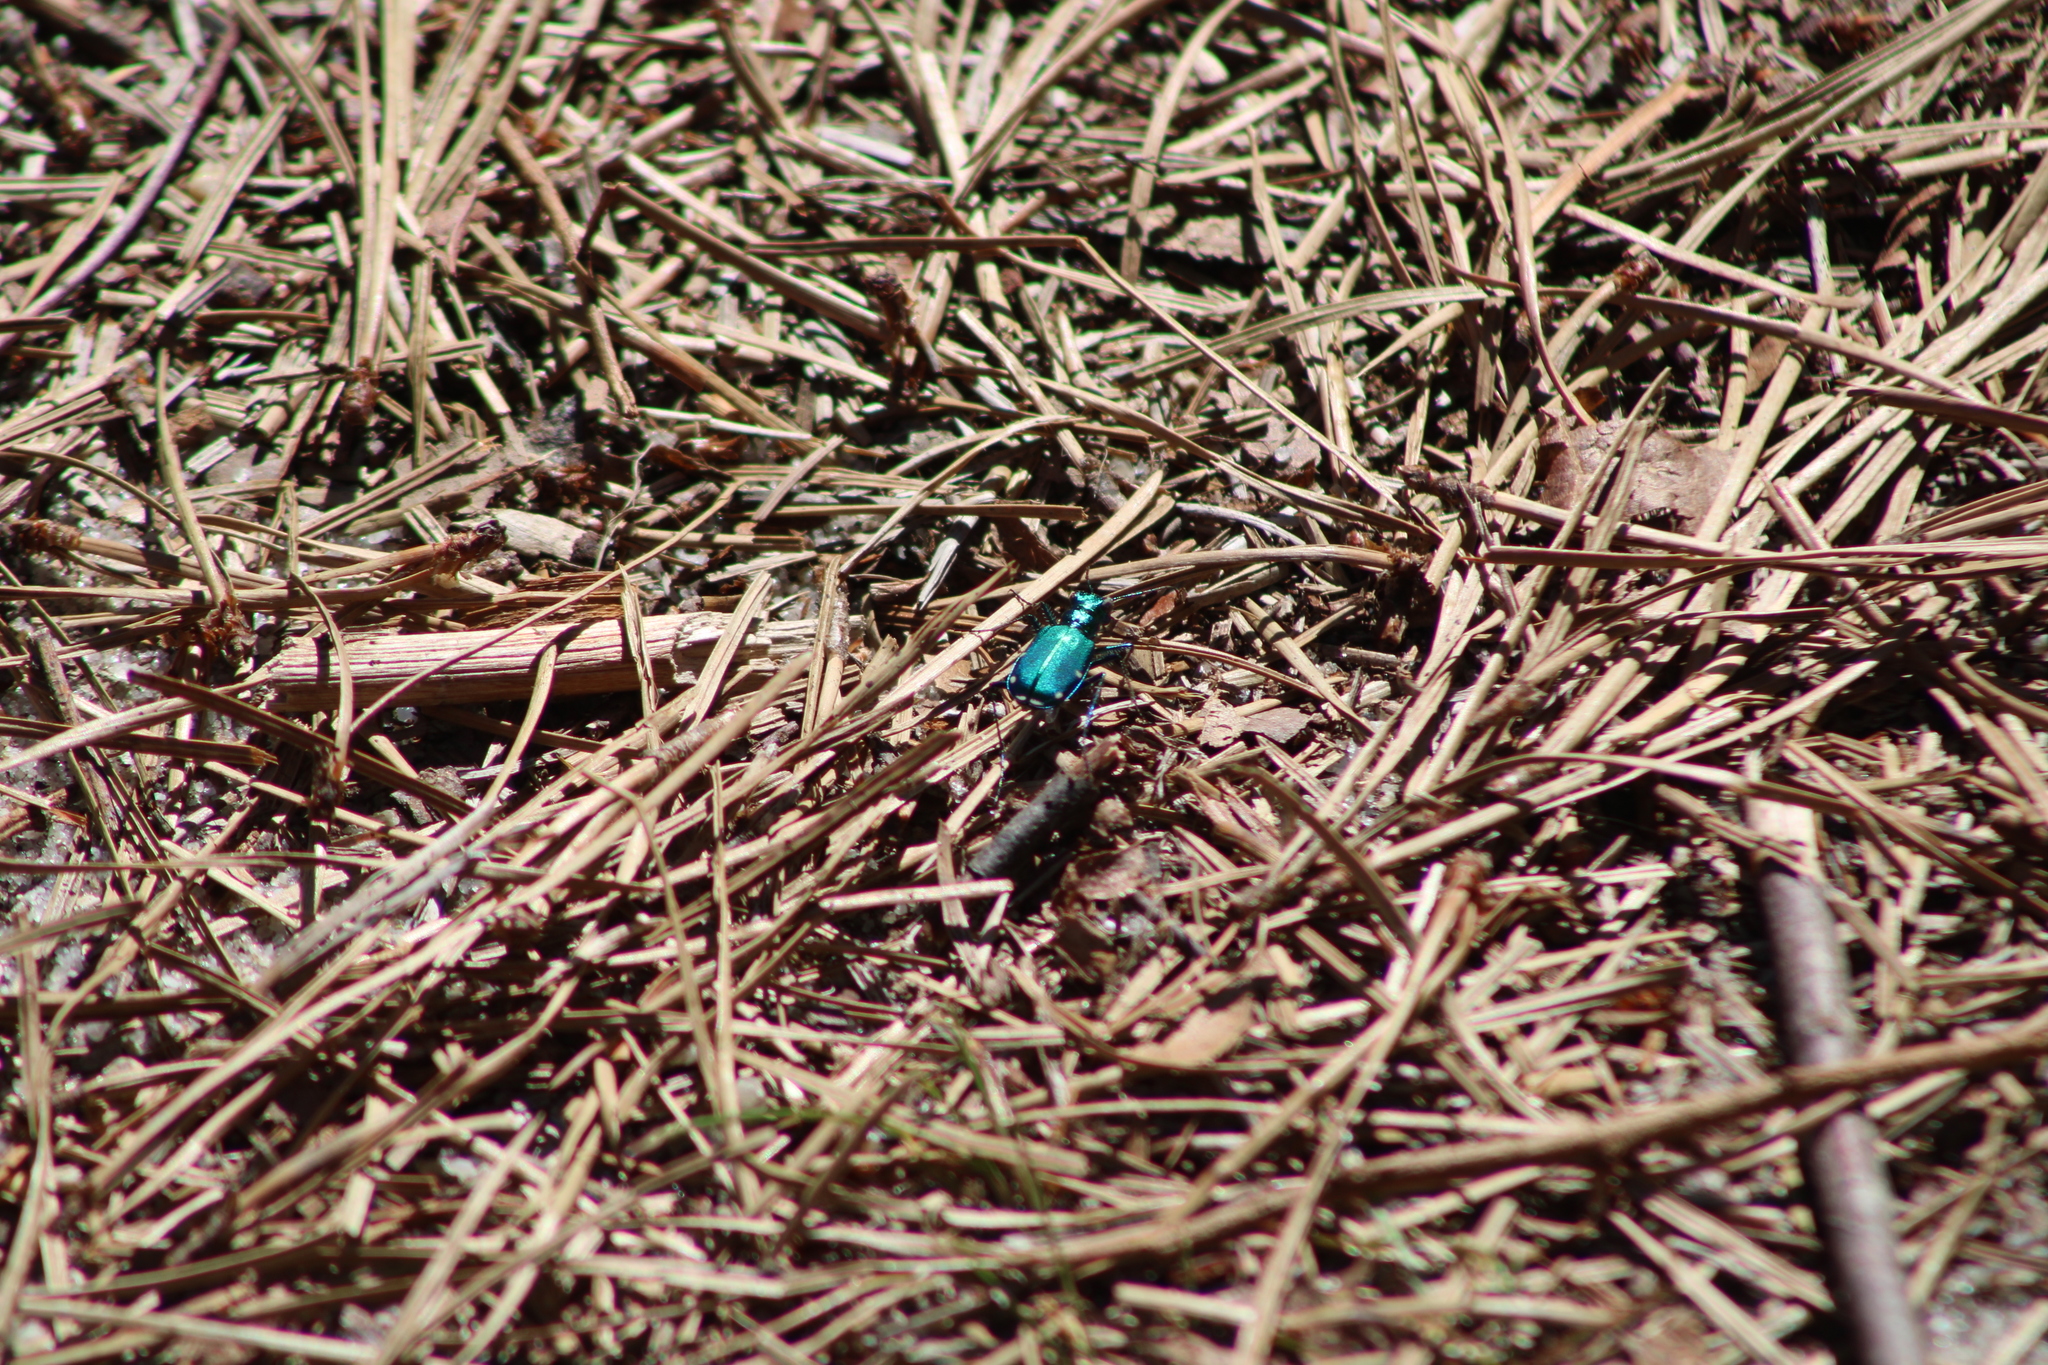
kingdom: Animalia
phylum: Arthropoda
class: Insecta
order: Coleoptera
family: Carabidae
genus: Cicindela
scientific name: Cicindela sexguttata
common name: Six-spotted tiger beetle
